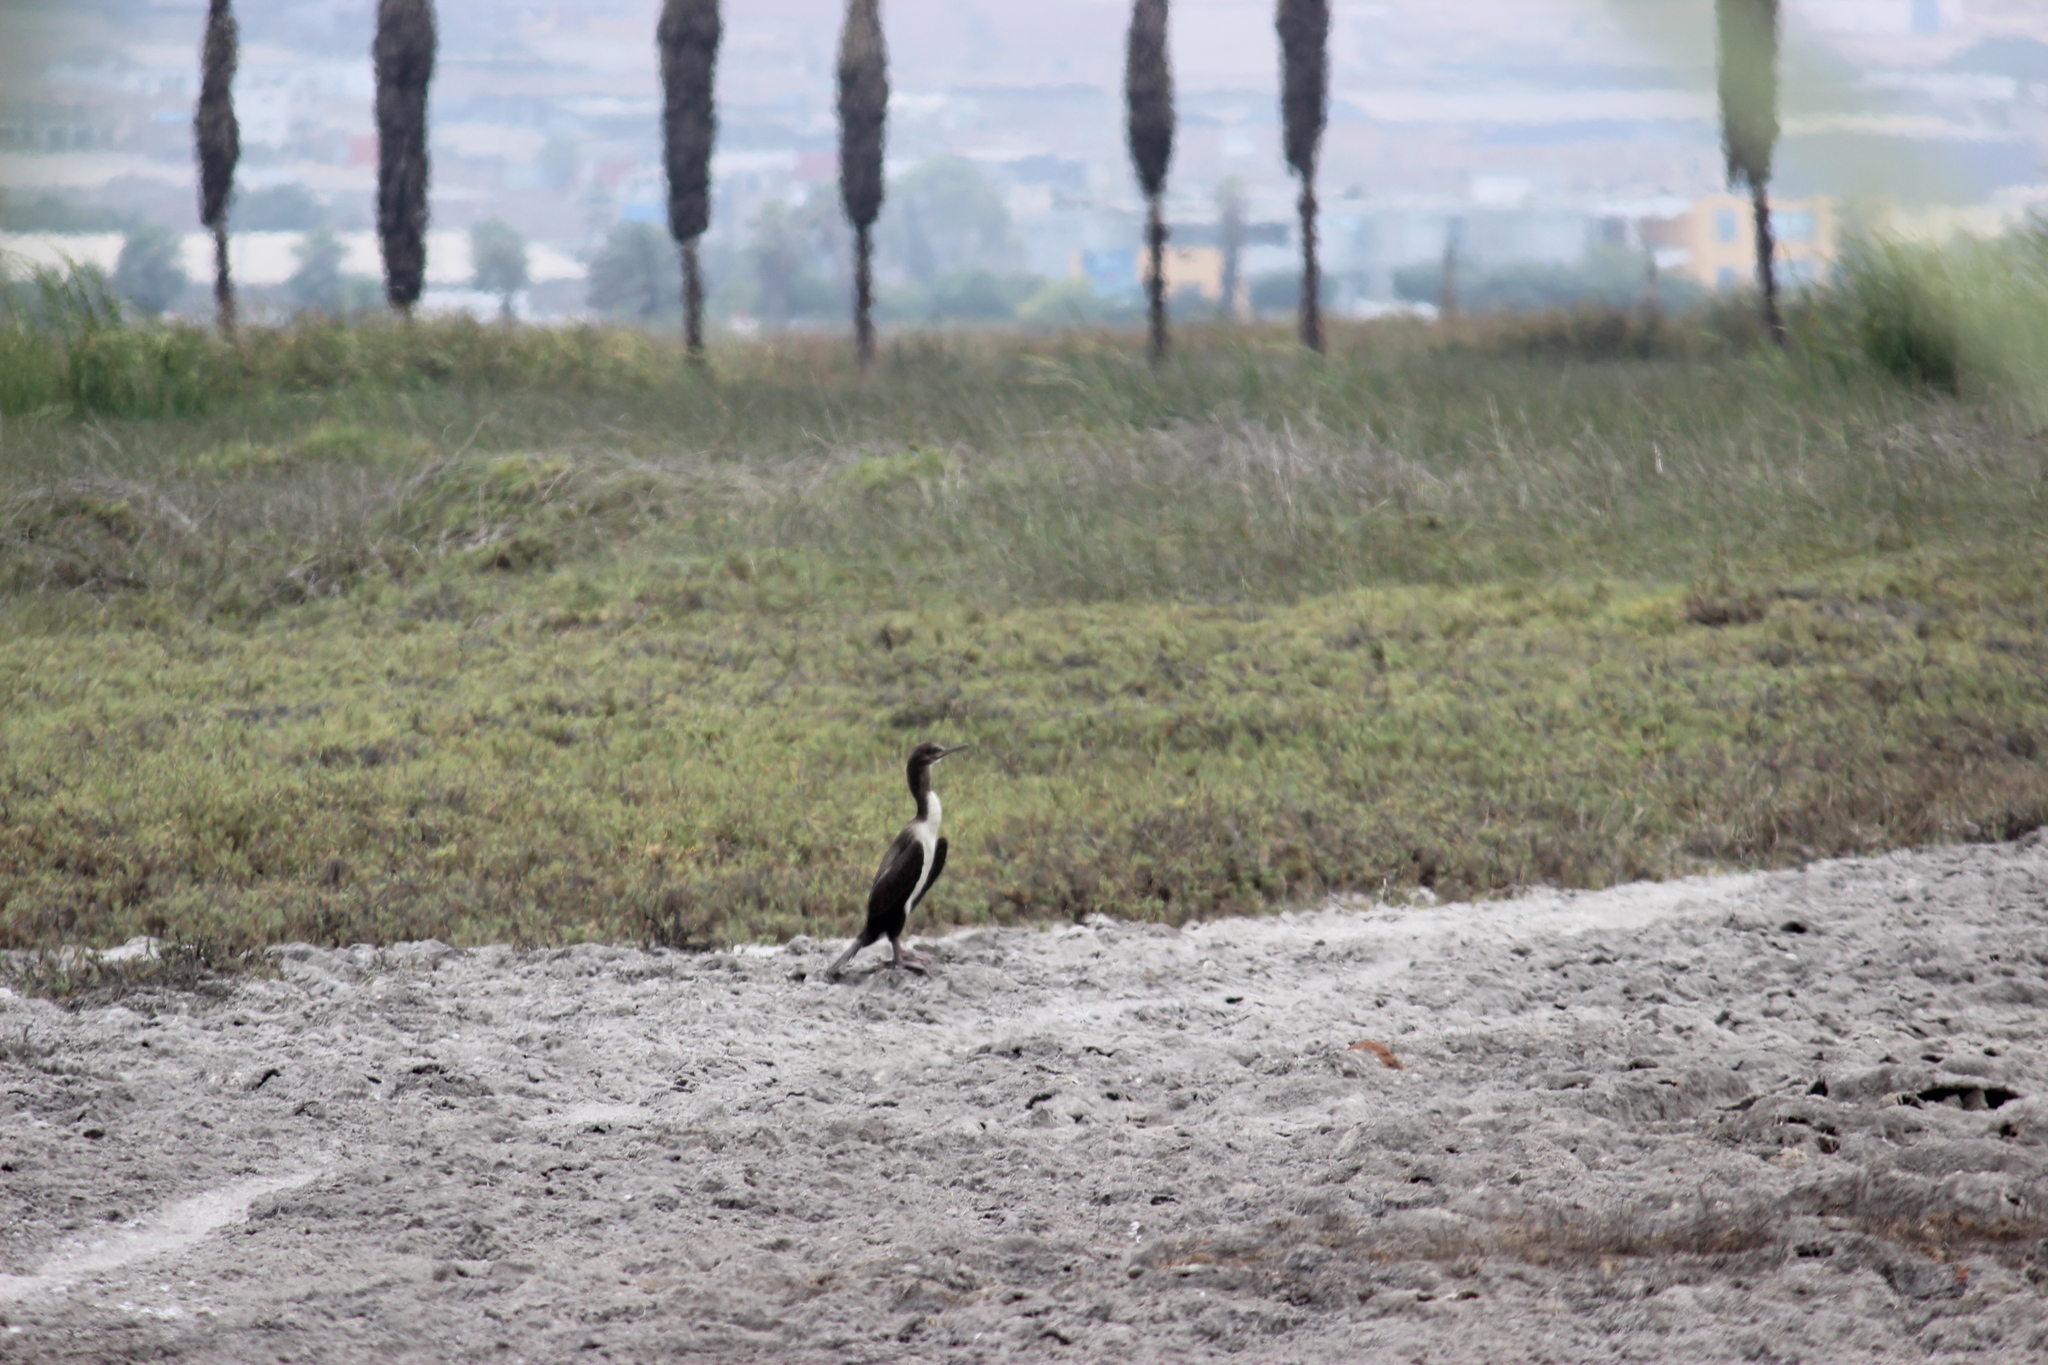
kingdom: Animalia
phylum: Chordata
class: Aves
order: Suliformes
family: Phalacrocoracidae
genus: Leucocarbo
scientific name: Leucocarbo bougainvillii
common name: Guanay cormorant
